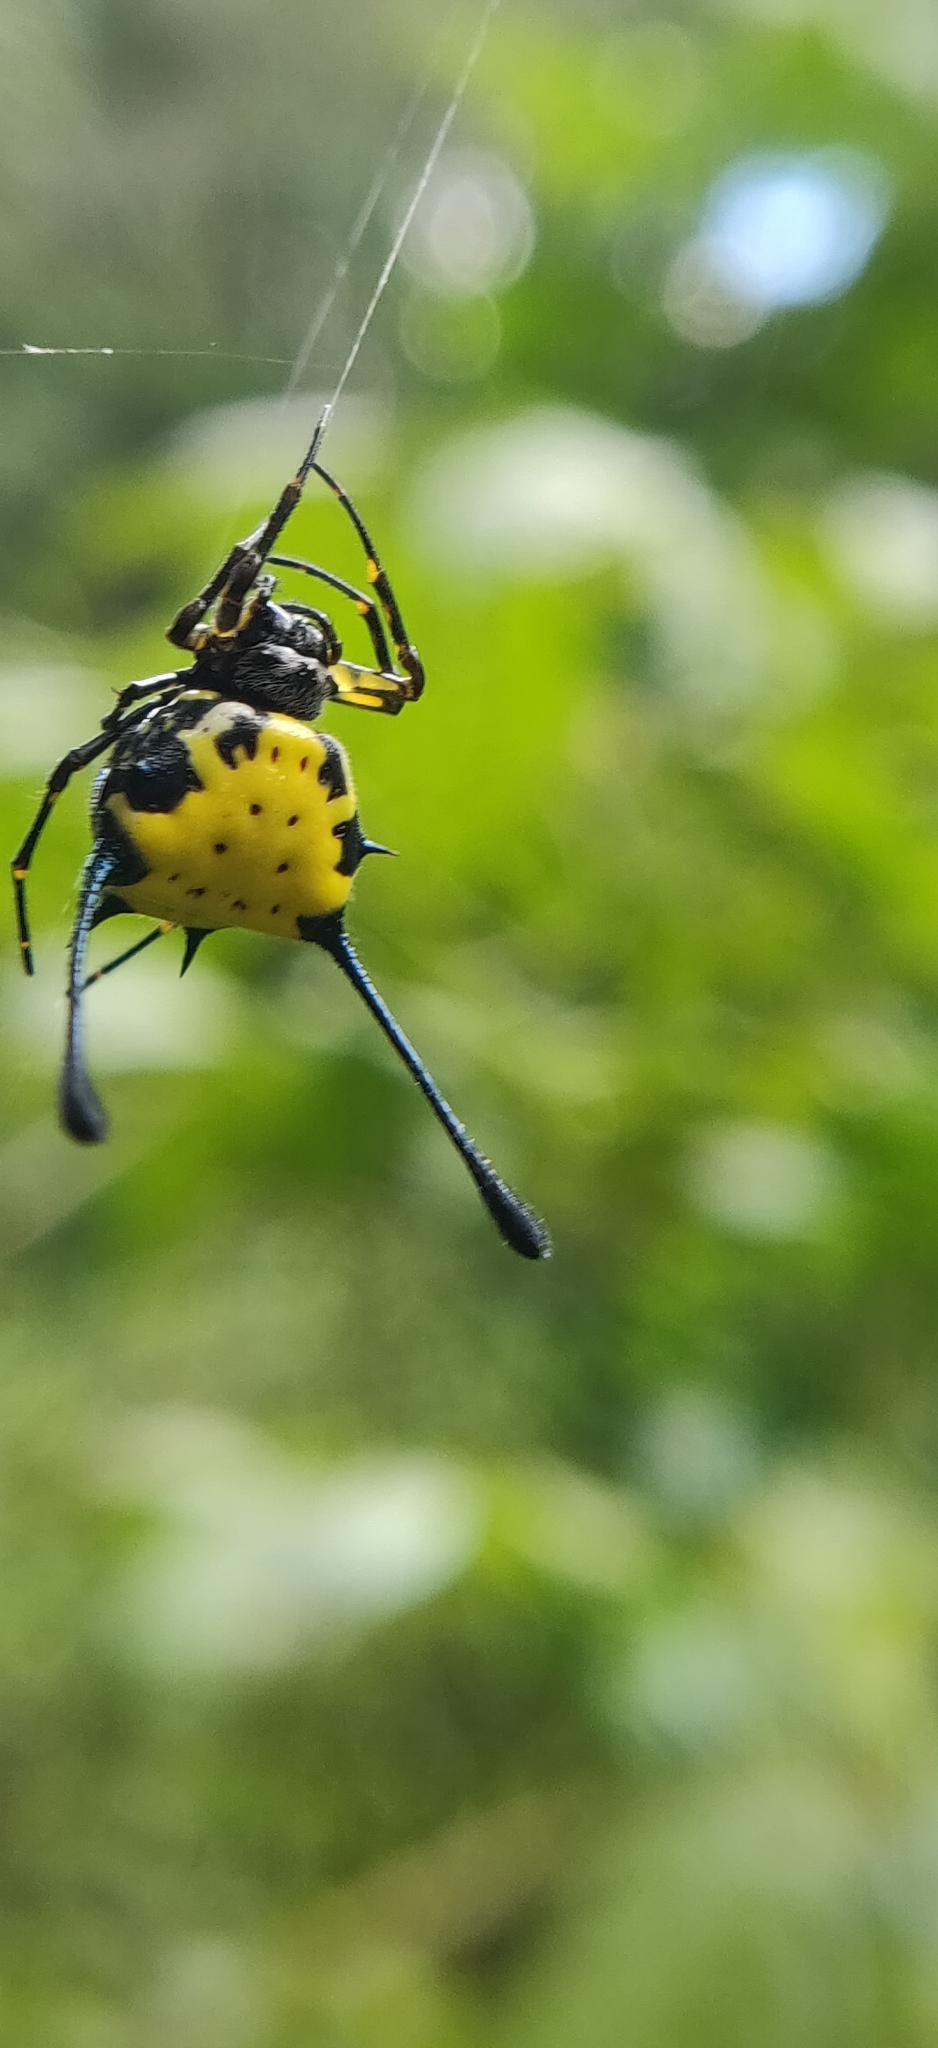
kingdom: Animalia
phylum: Arthropoda
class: Arachnida
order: Araneae
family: Araneidae
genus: Gasteracantha
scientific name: Gasteracantha remifera
